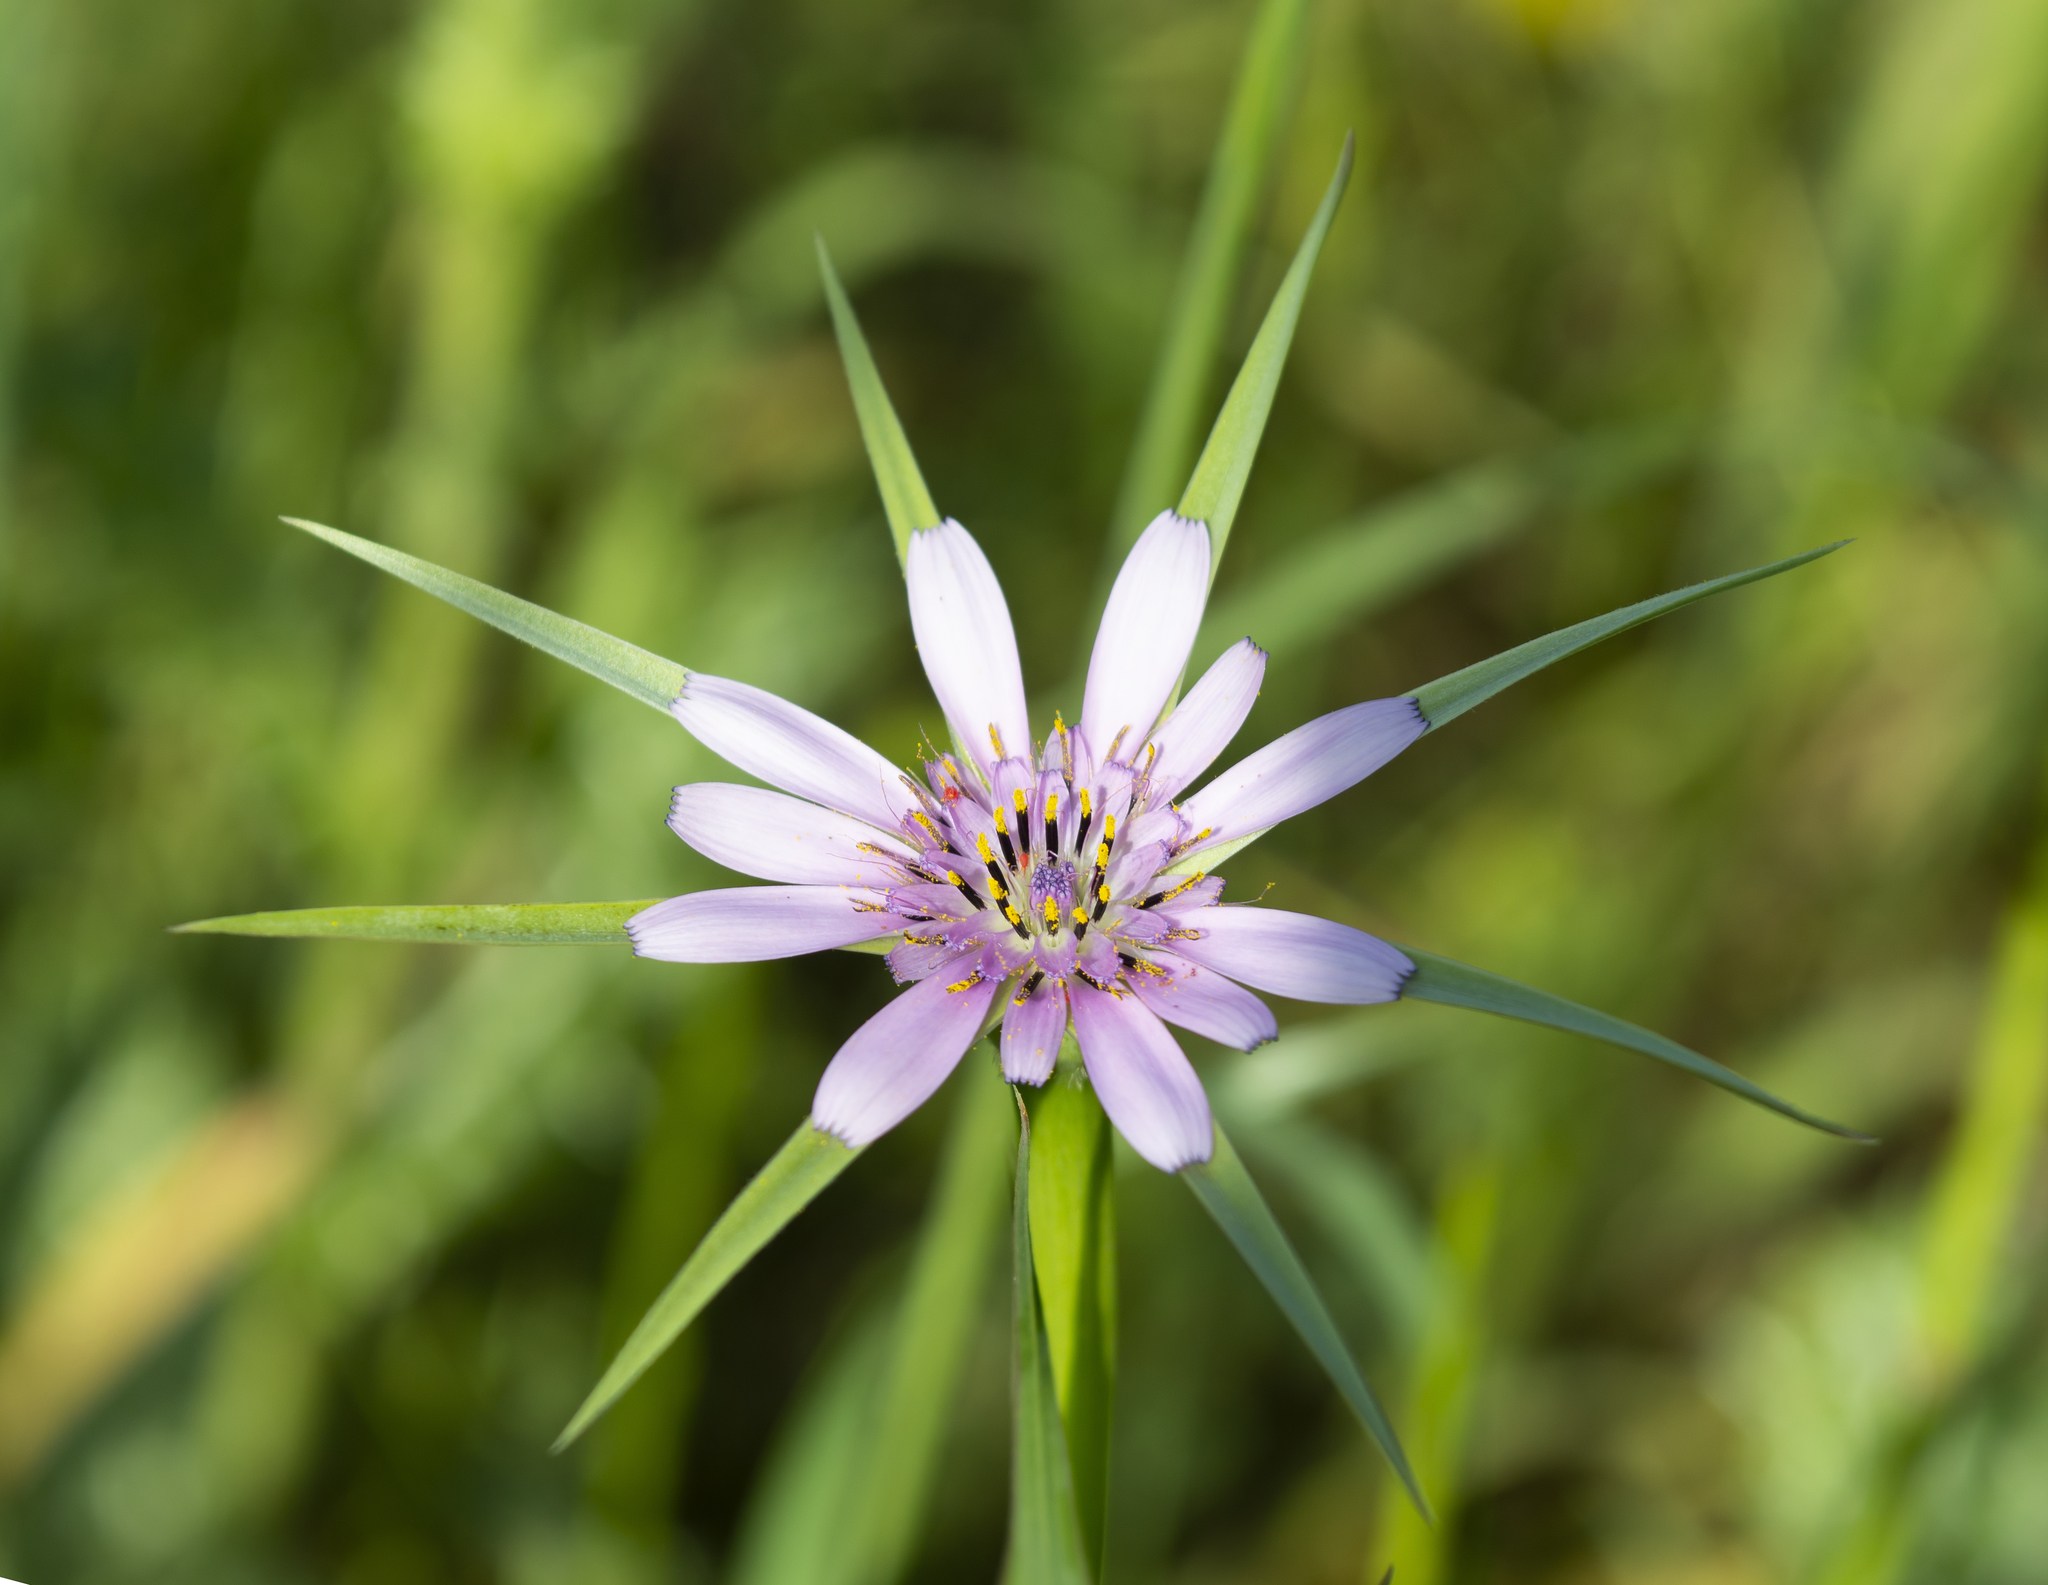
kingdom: Plantae
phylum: Tracheophyta
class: Magnoliopsida
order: Asterales
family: Asteraceae
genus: Tragopogon
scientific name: Tragopogon porrifolius
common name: Salsify
